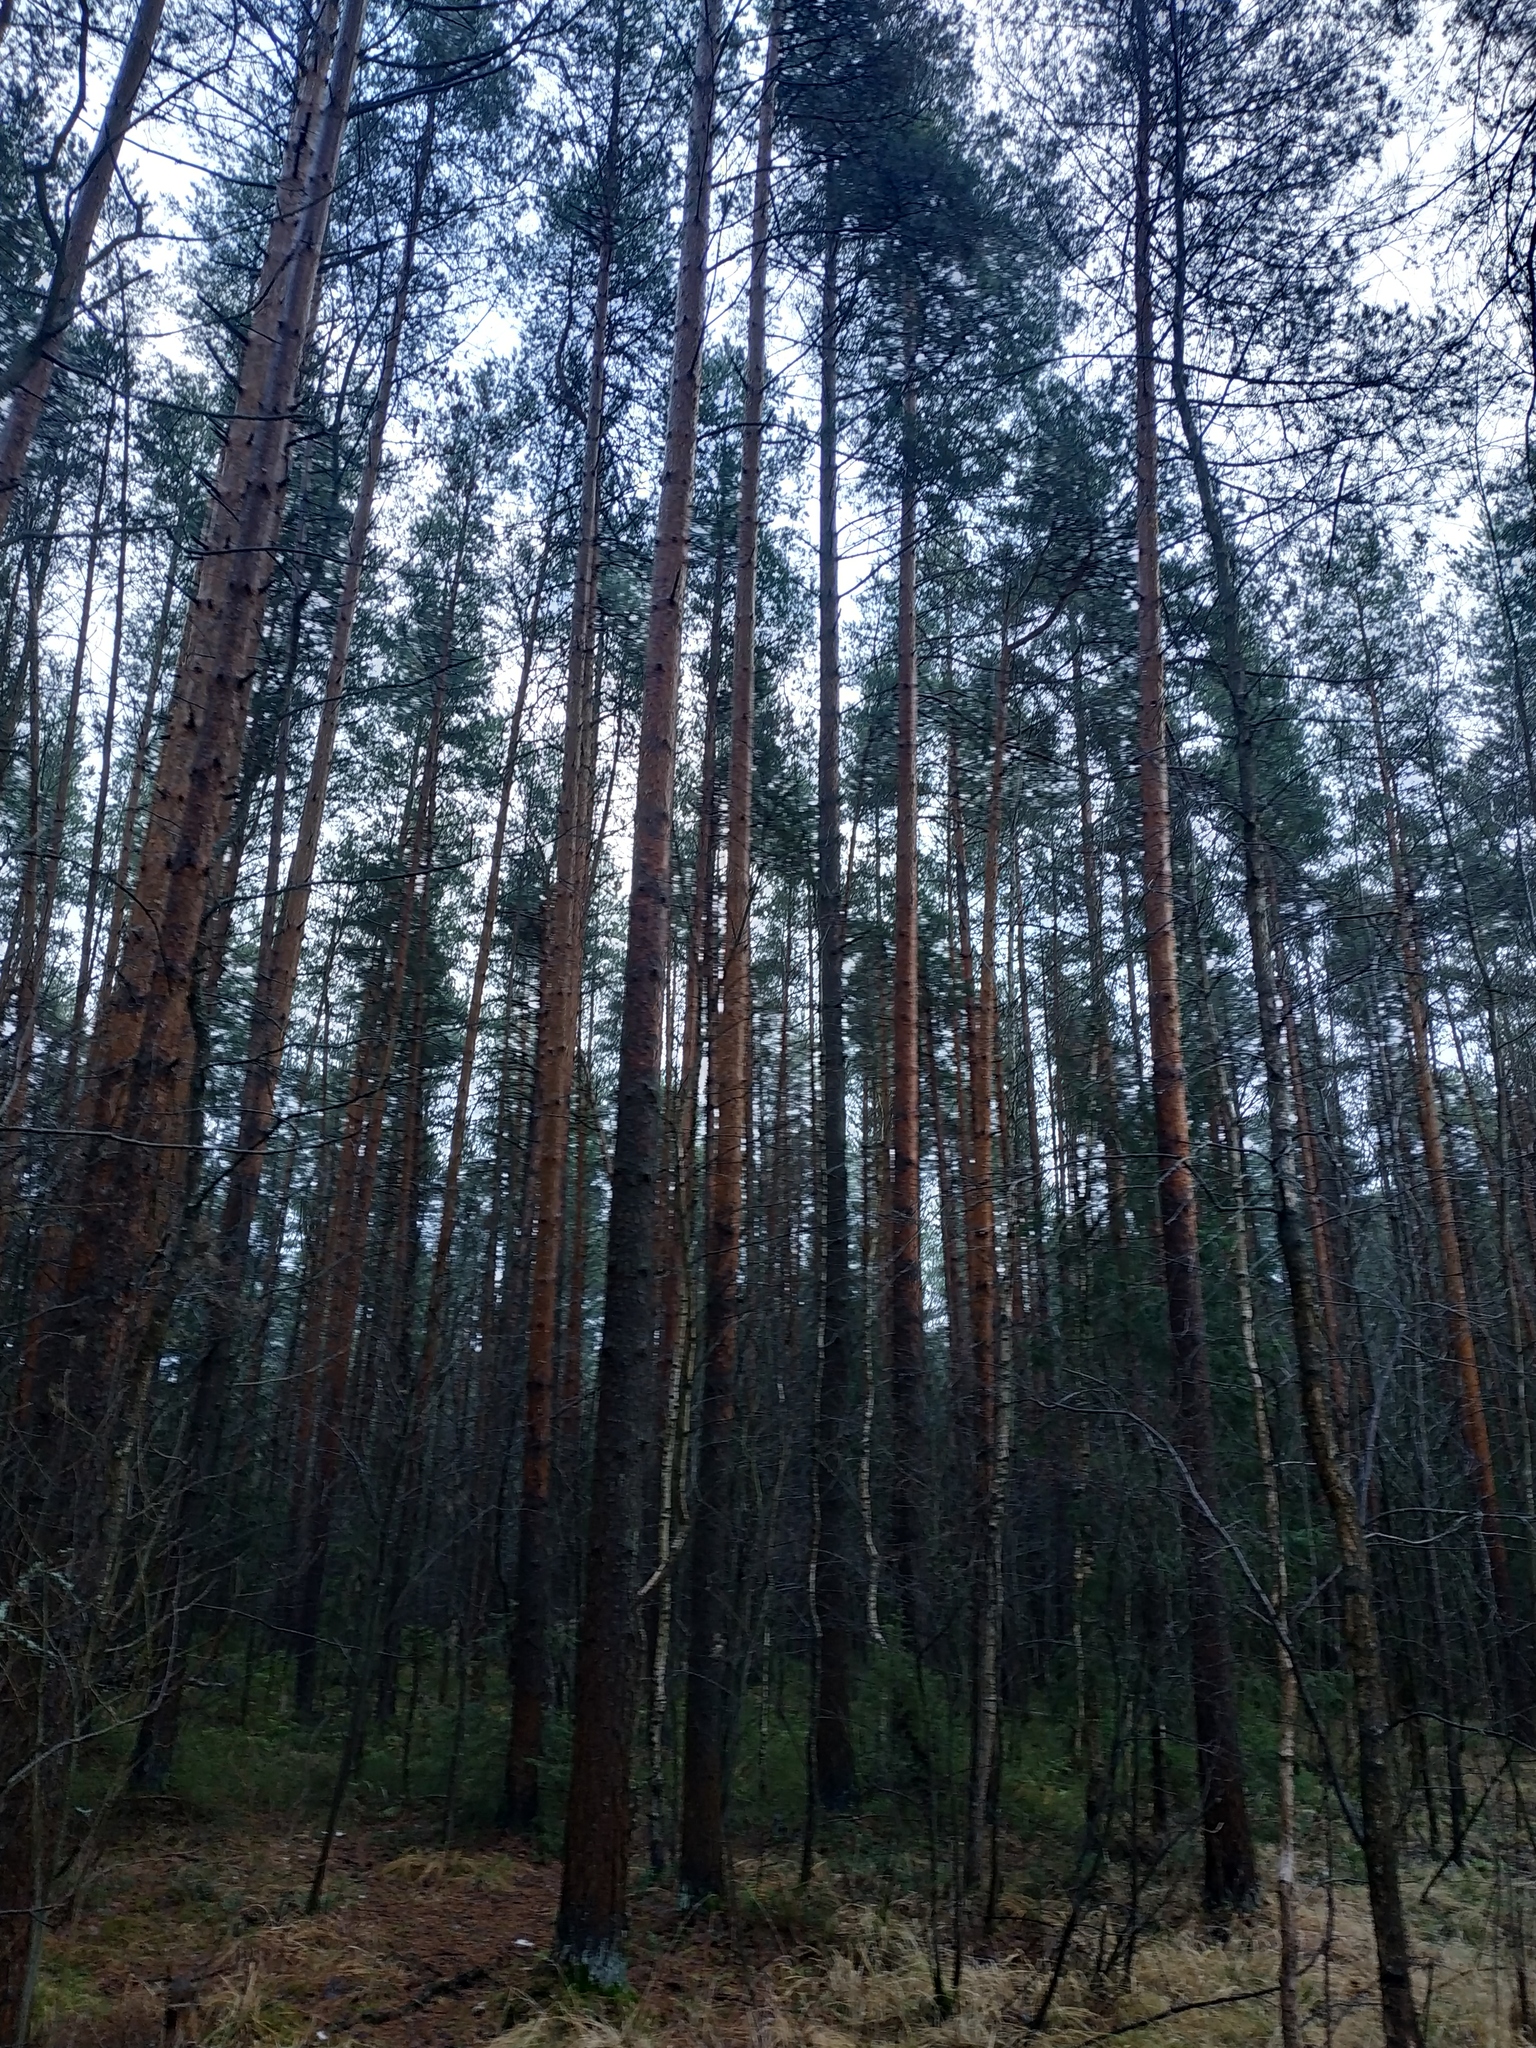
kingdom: Plantae
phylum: Tracheophyta
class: Pinopsida
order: Pinales
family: Pinaceae
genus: Pinus
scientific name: Pinus sylvestris
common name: Scots pine
